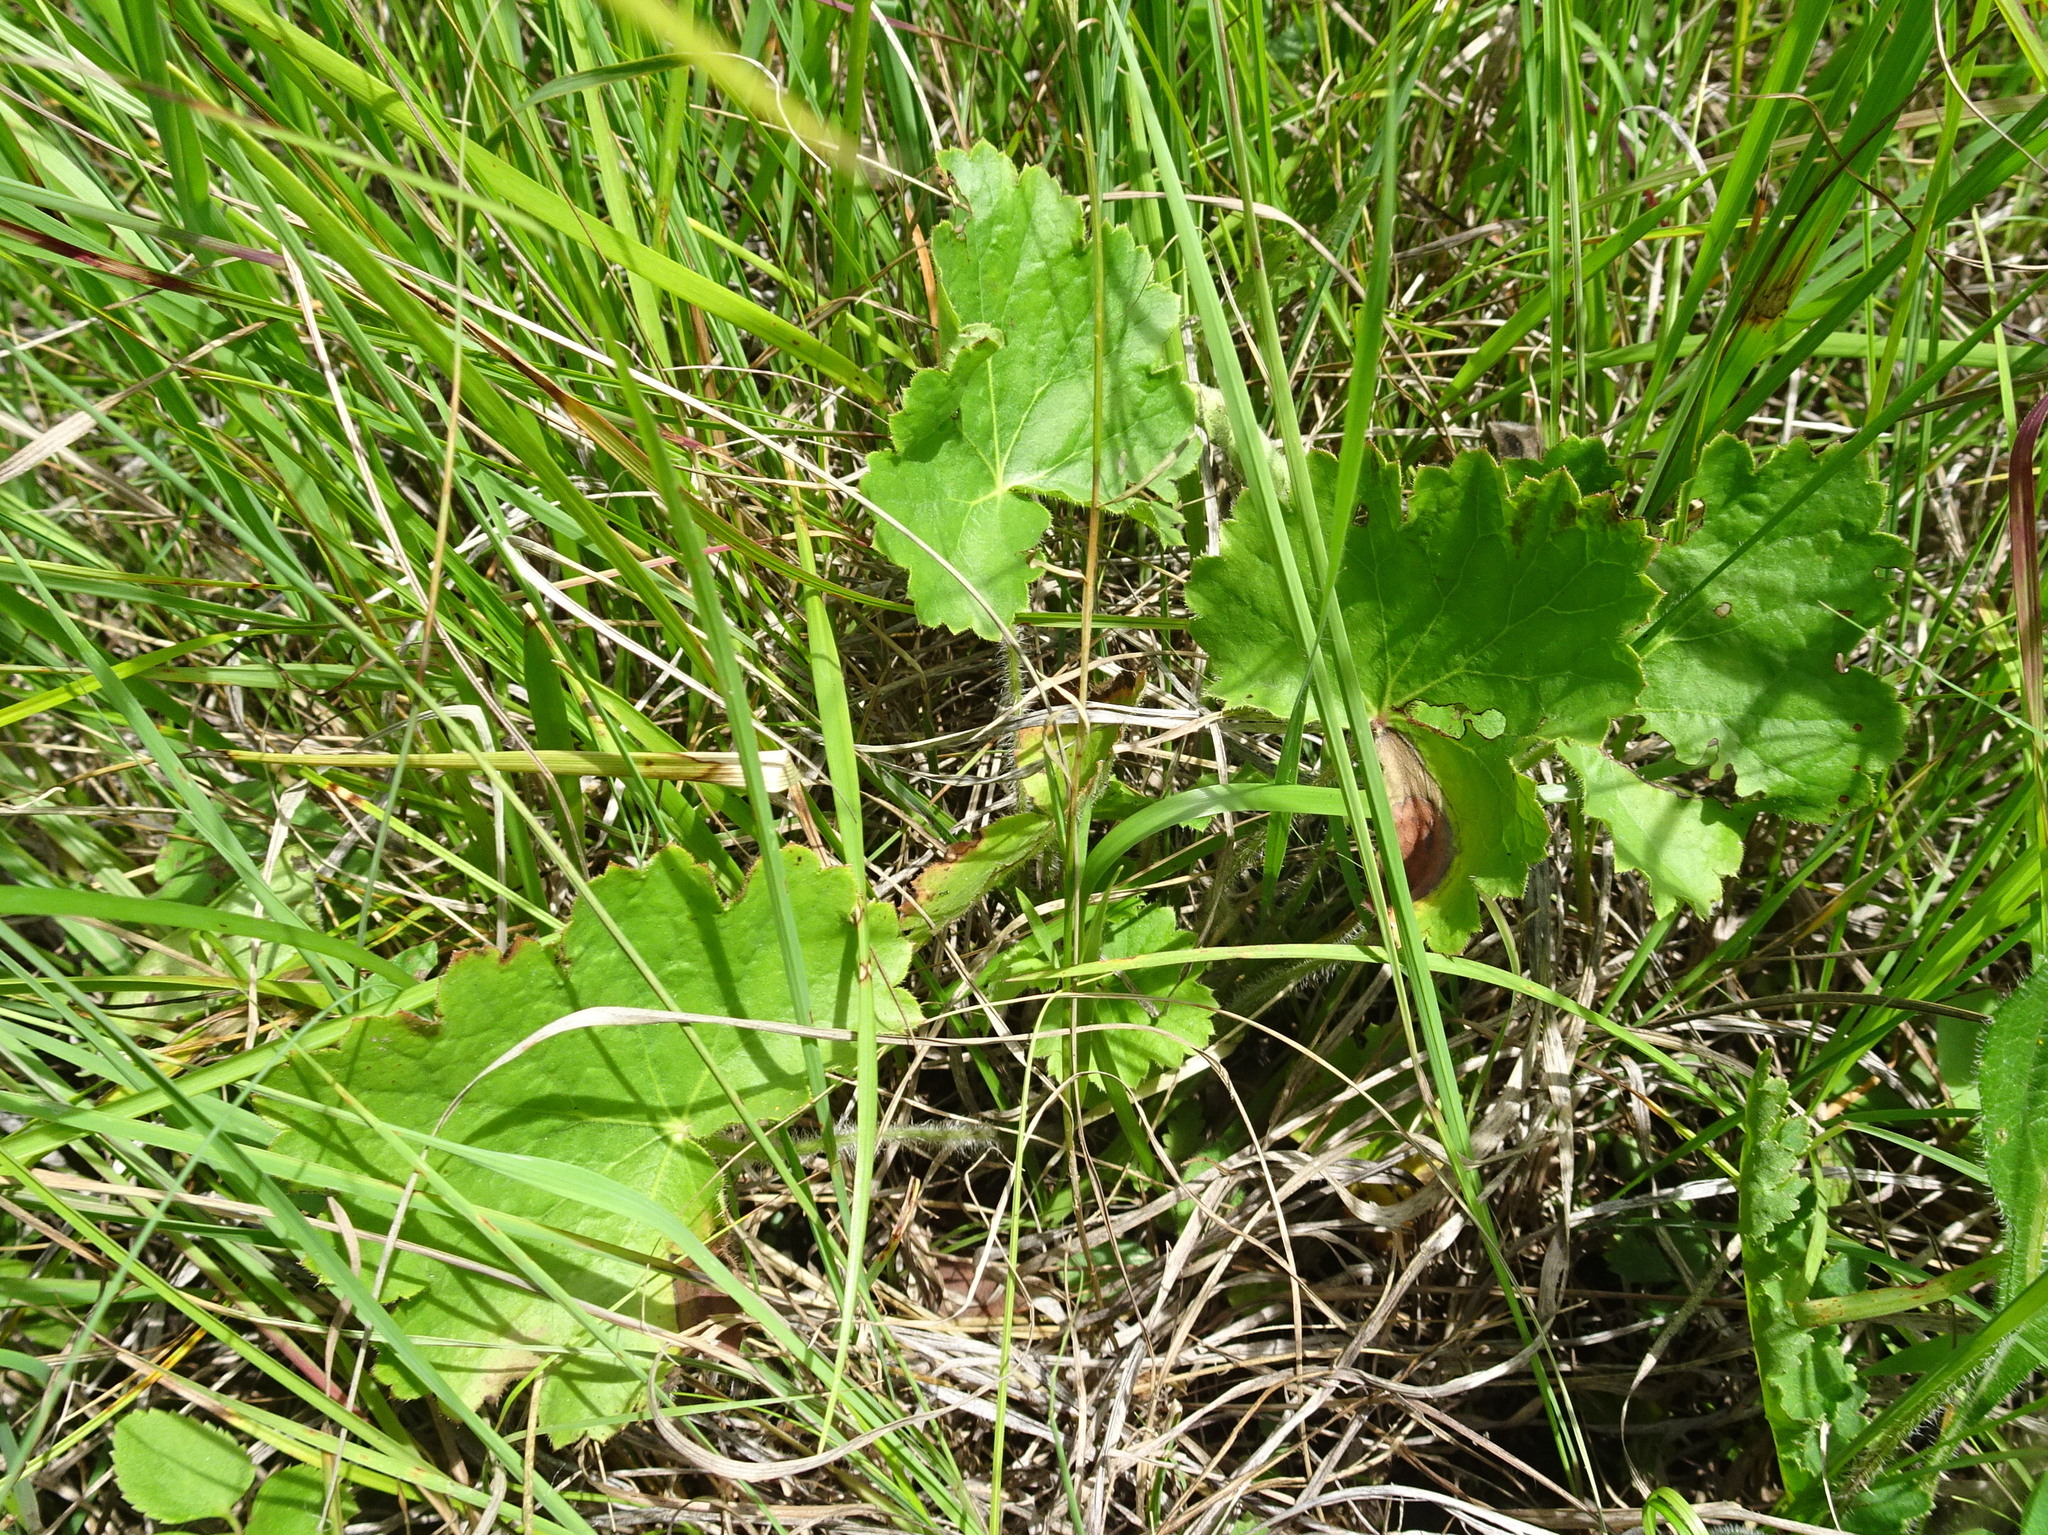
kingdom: Plantae
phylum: Tracheophyta
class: Magnoliopsida
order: Saxifragales
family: Saxifragaceae
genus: Heuchera
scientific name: Heuchera richardsonii
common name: Richardson's alumroot
